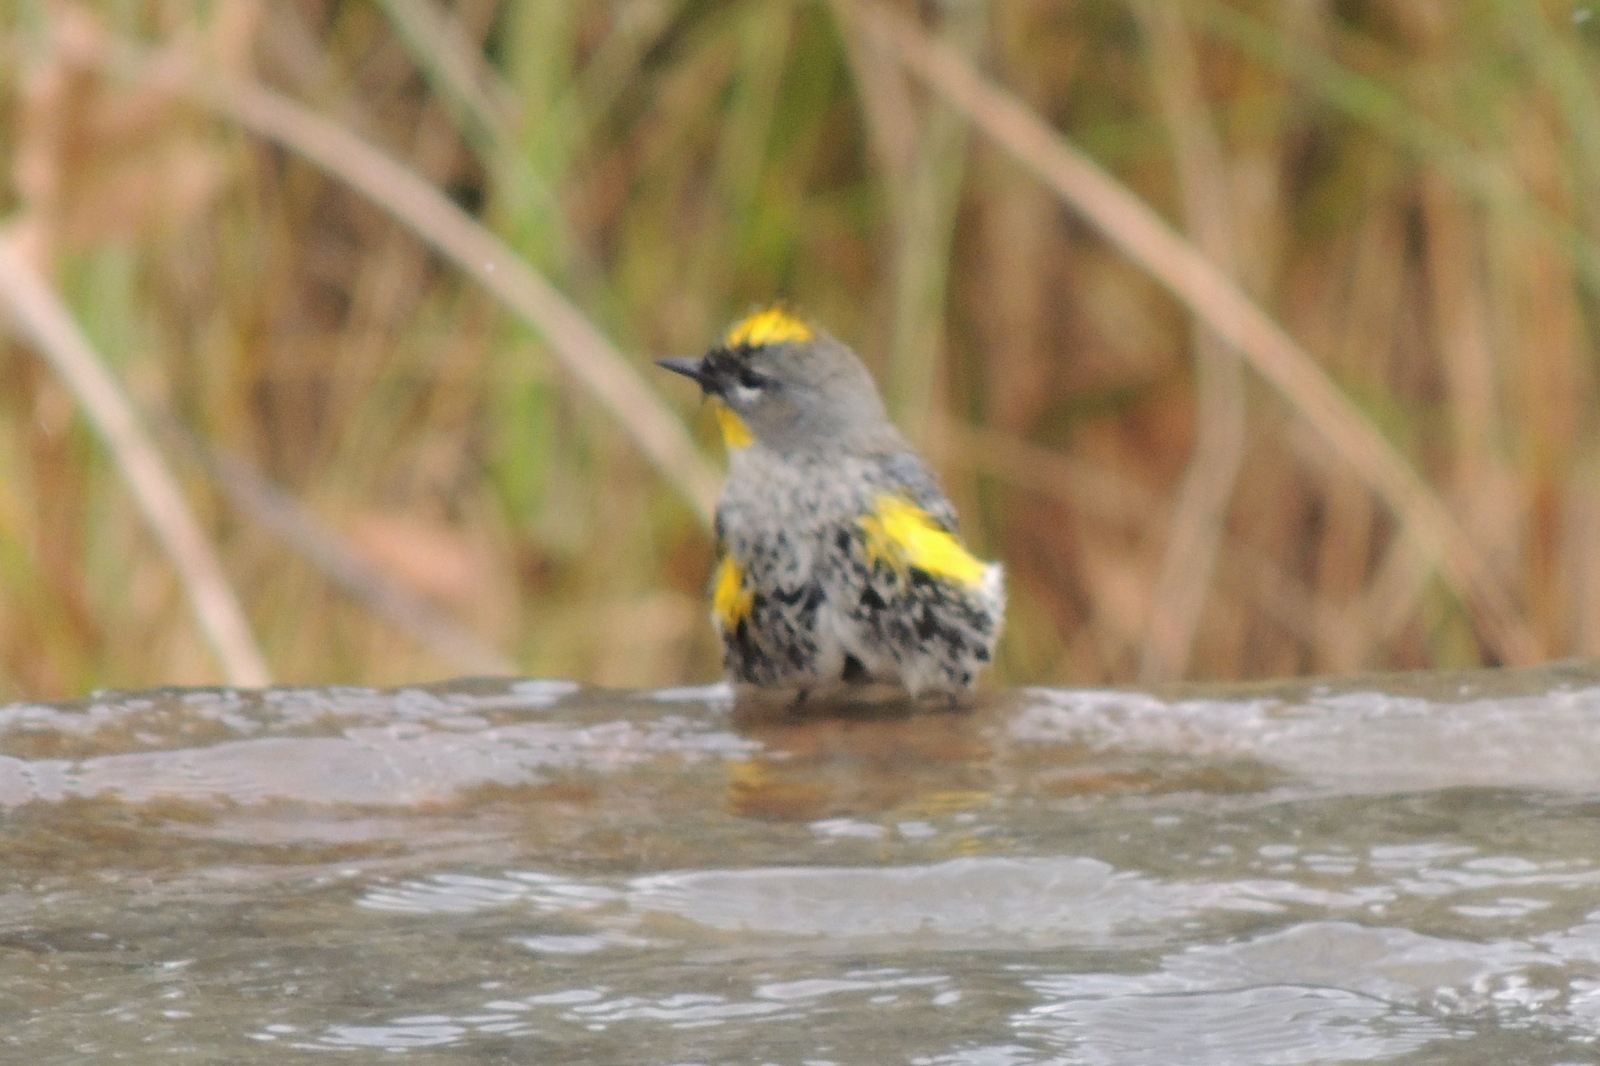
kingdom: Animalia
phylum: Chordata
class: Aves
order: Passeriformes
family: Parulidae
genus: Setophaga
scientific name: Setophaga coronata
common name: Myrtle warbler
